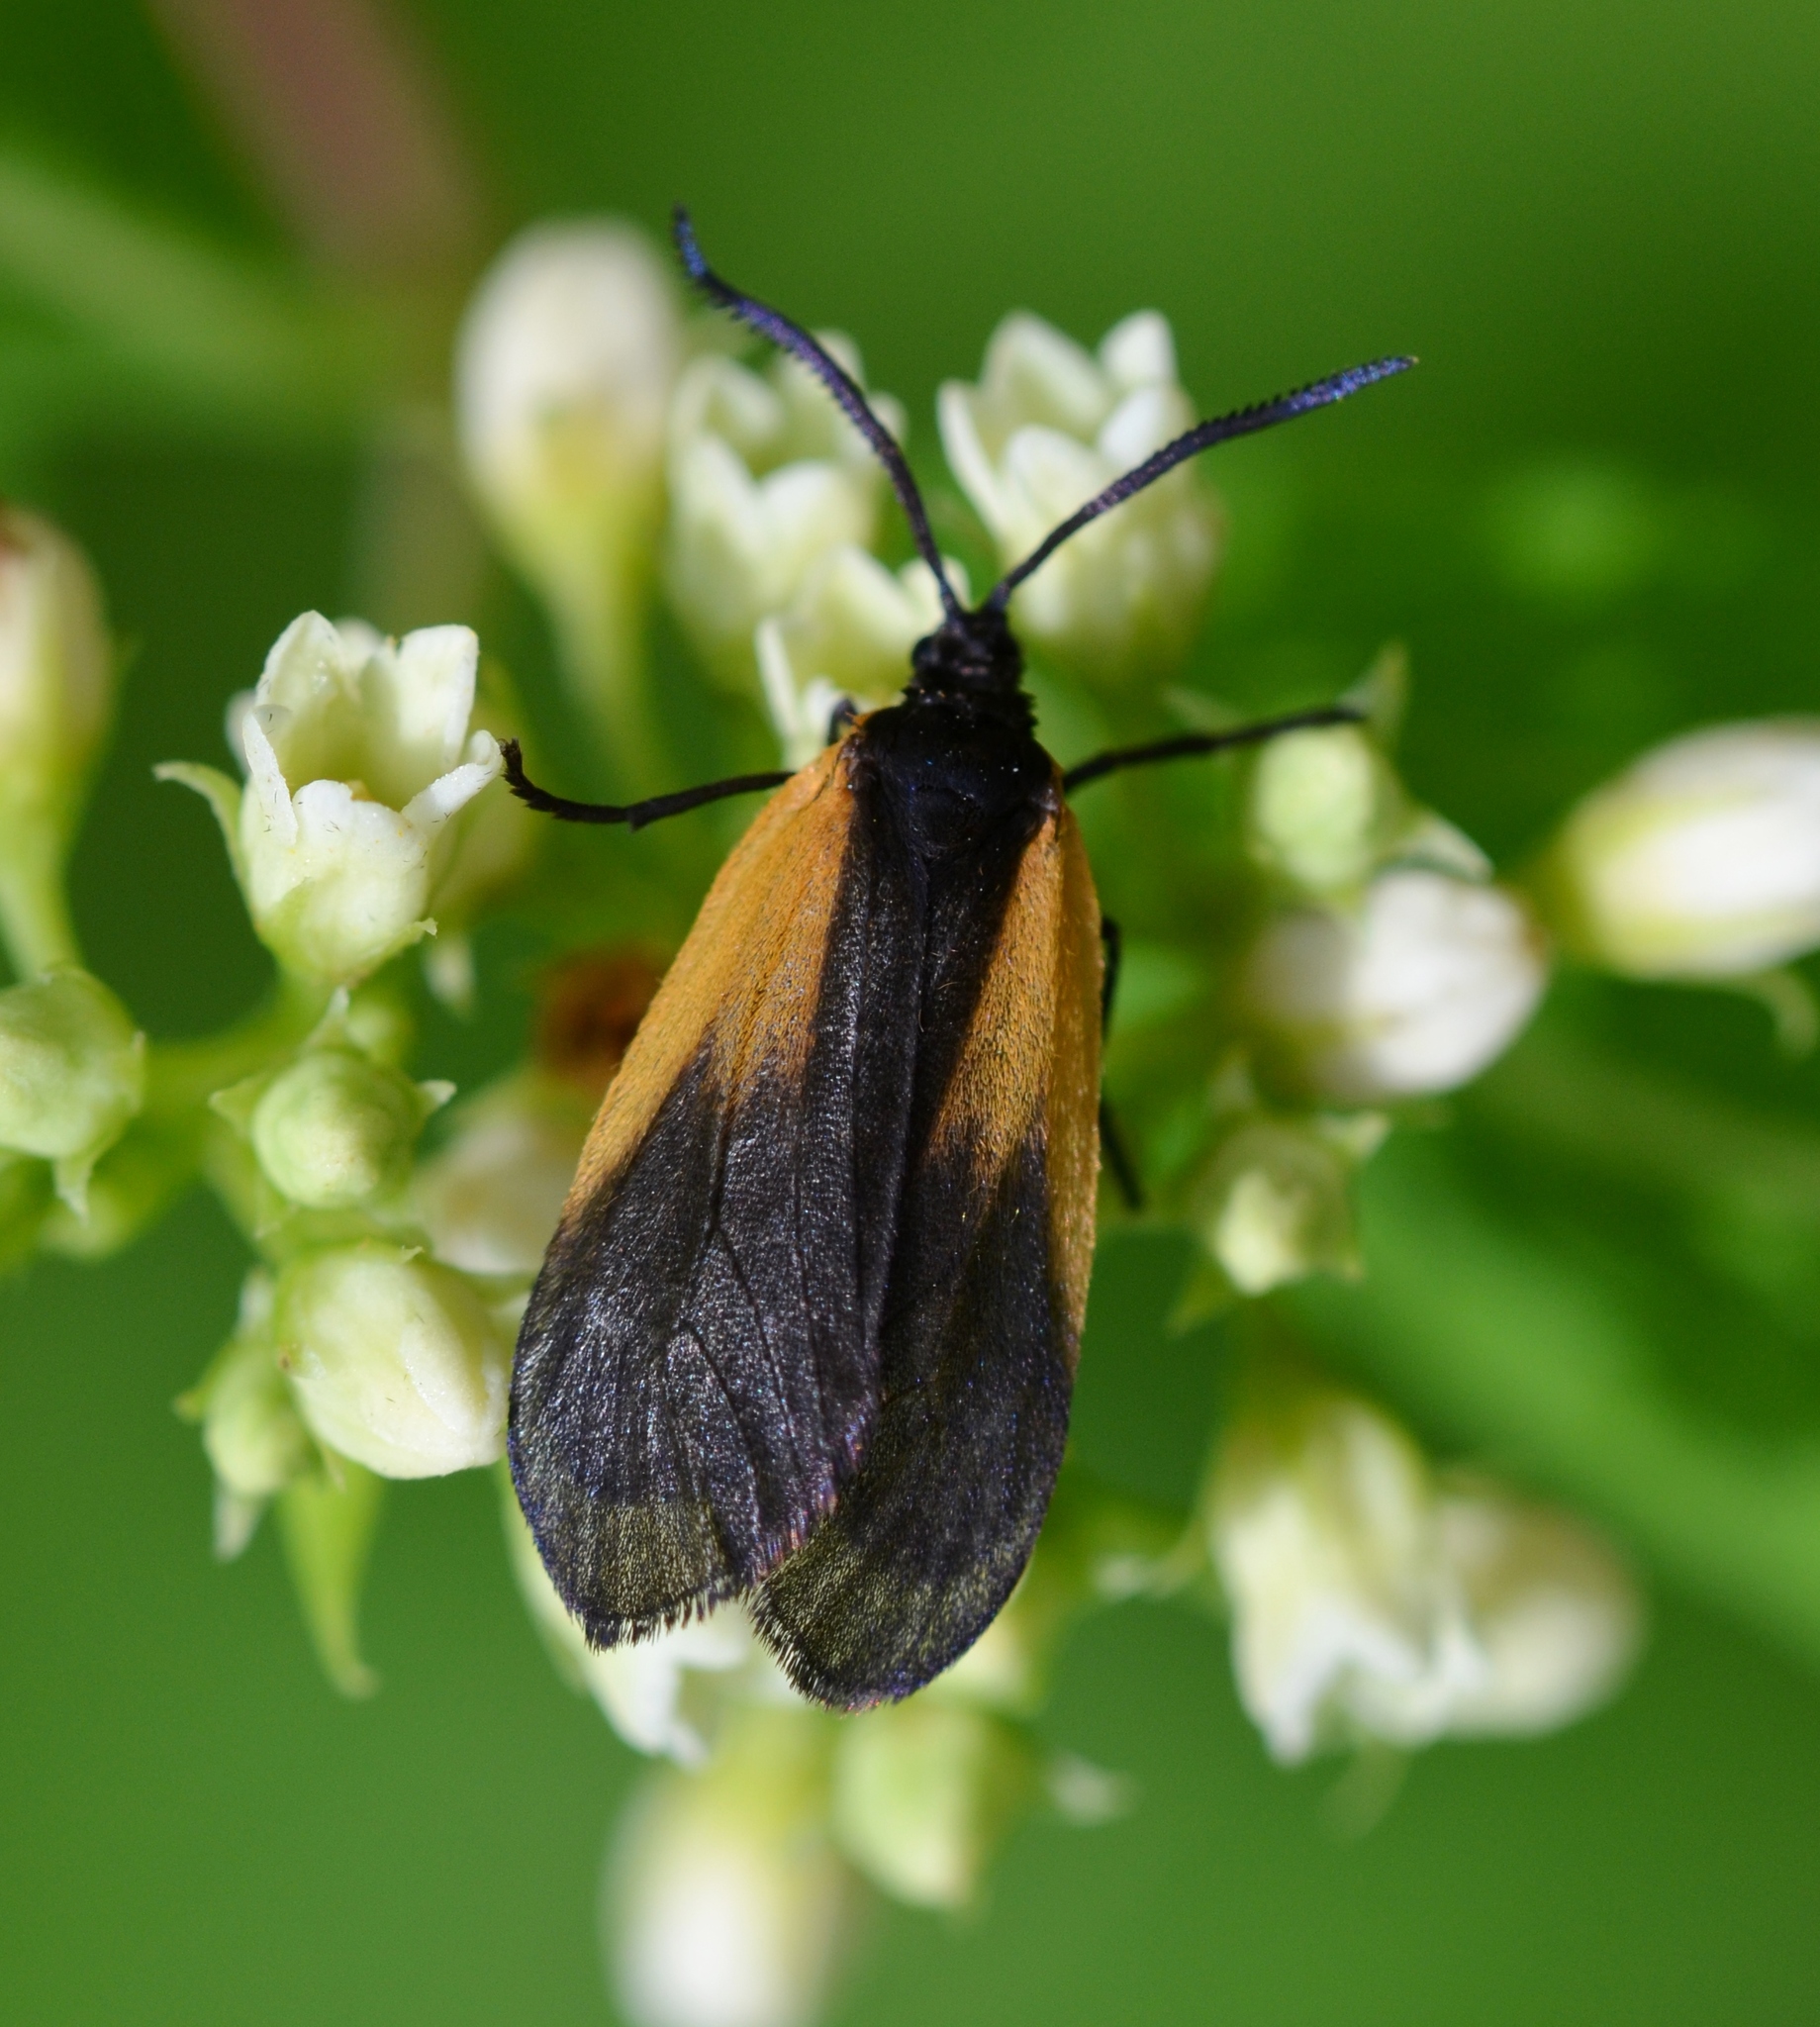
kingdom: Animalia
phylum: Arthropoda
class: Insecta
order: Lepidoptera
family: Zygaenidae
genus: Malthaca
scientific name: Malthaca dimidiata
